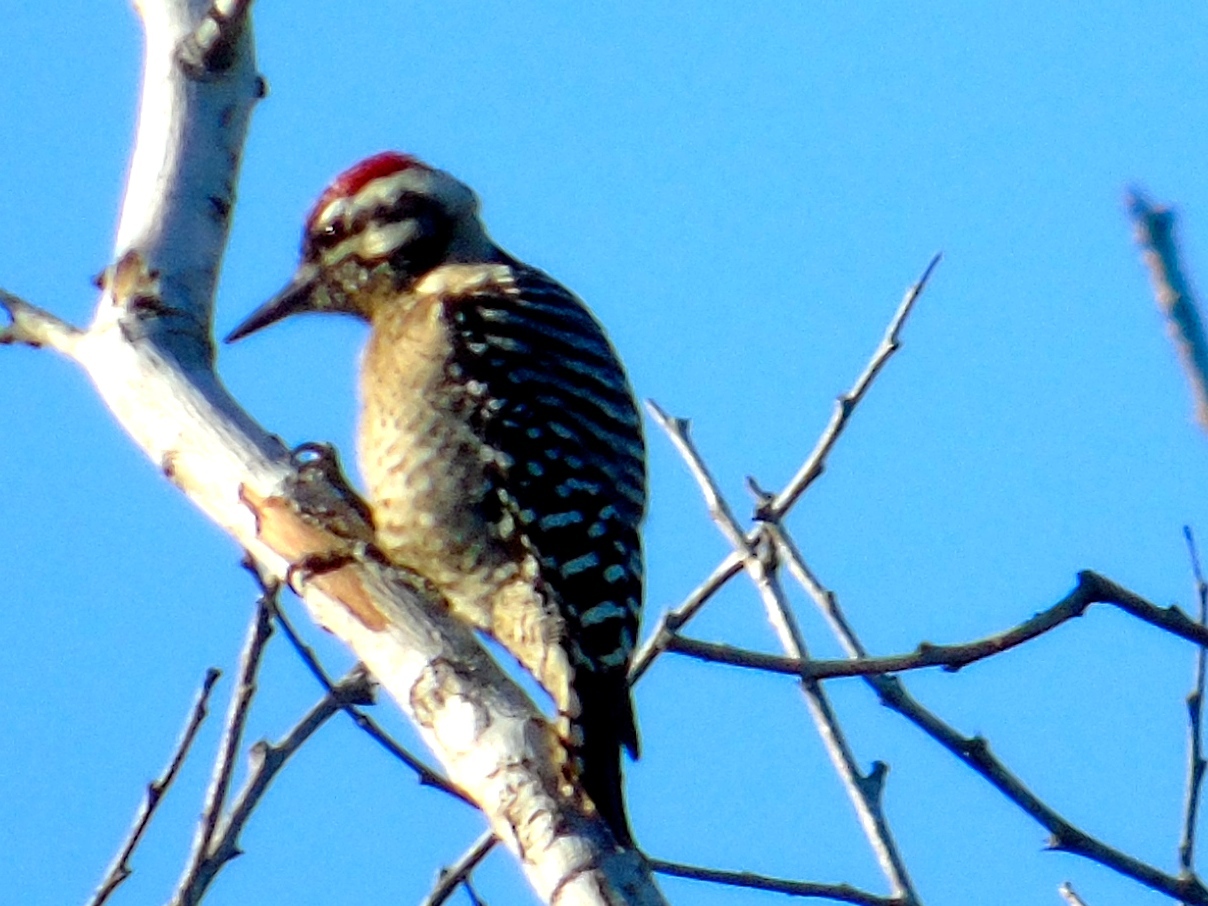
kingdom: Animalia
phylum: Chordata
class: Aves
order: Piciformes
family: Picidae
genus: Dryobates
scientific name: Dryobates scalaris
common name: Ladder-backed woodpecker
